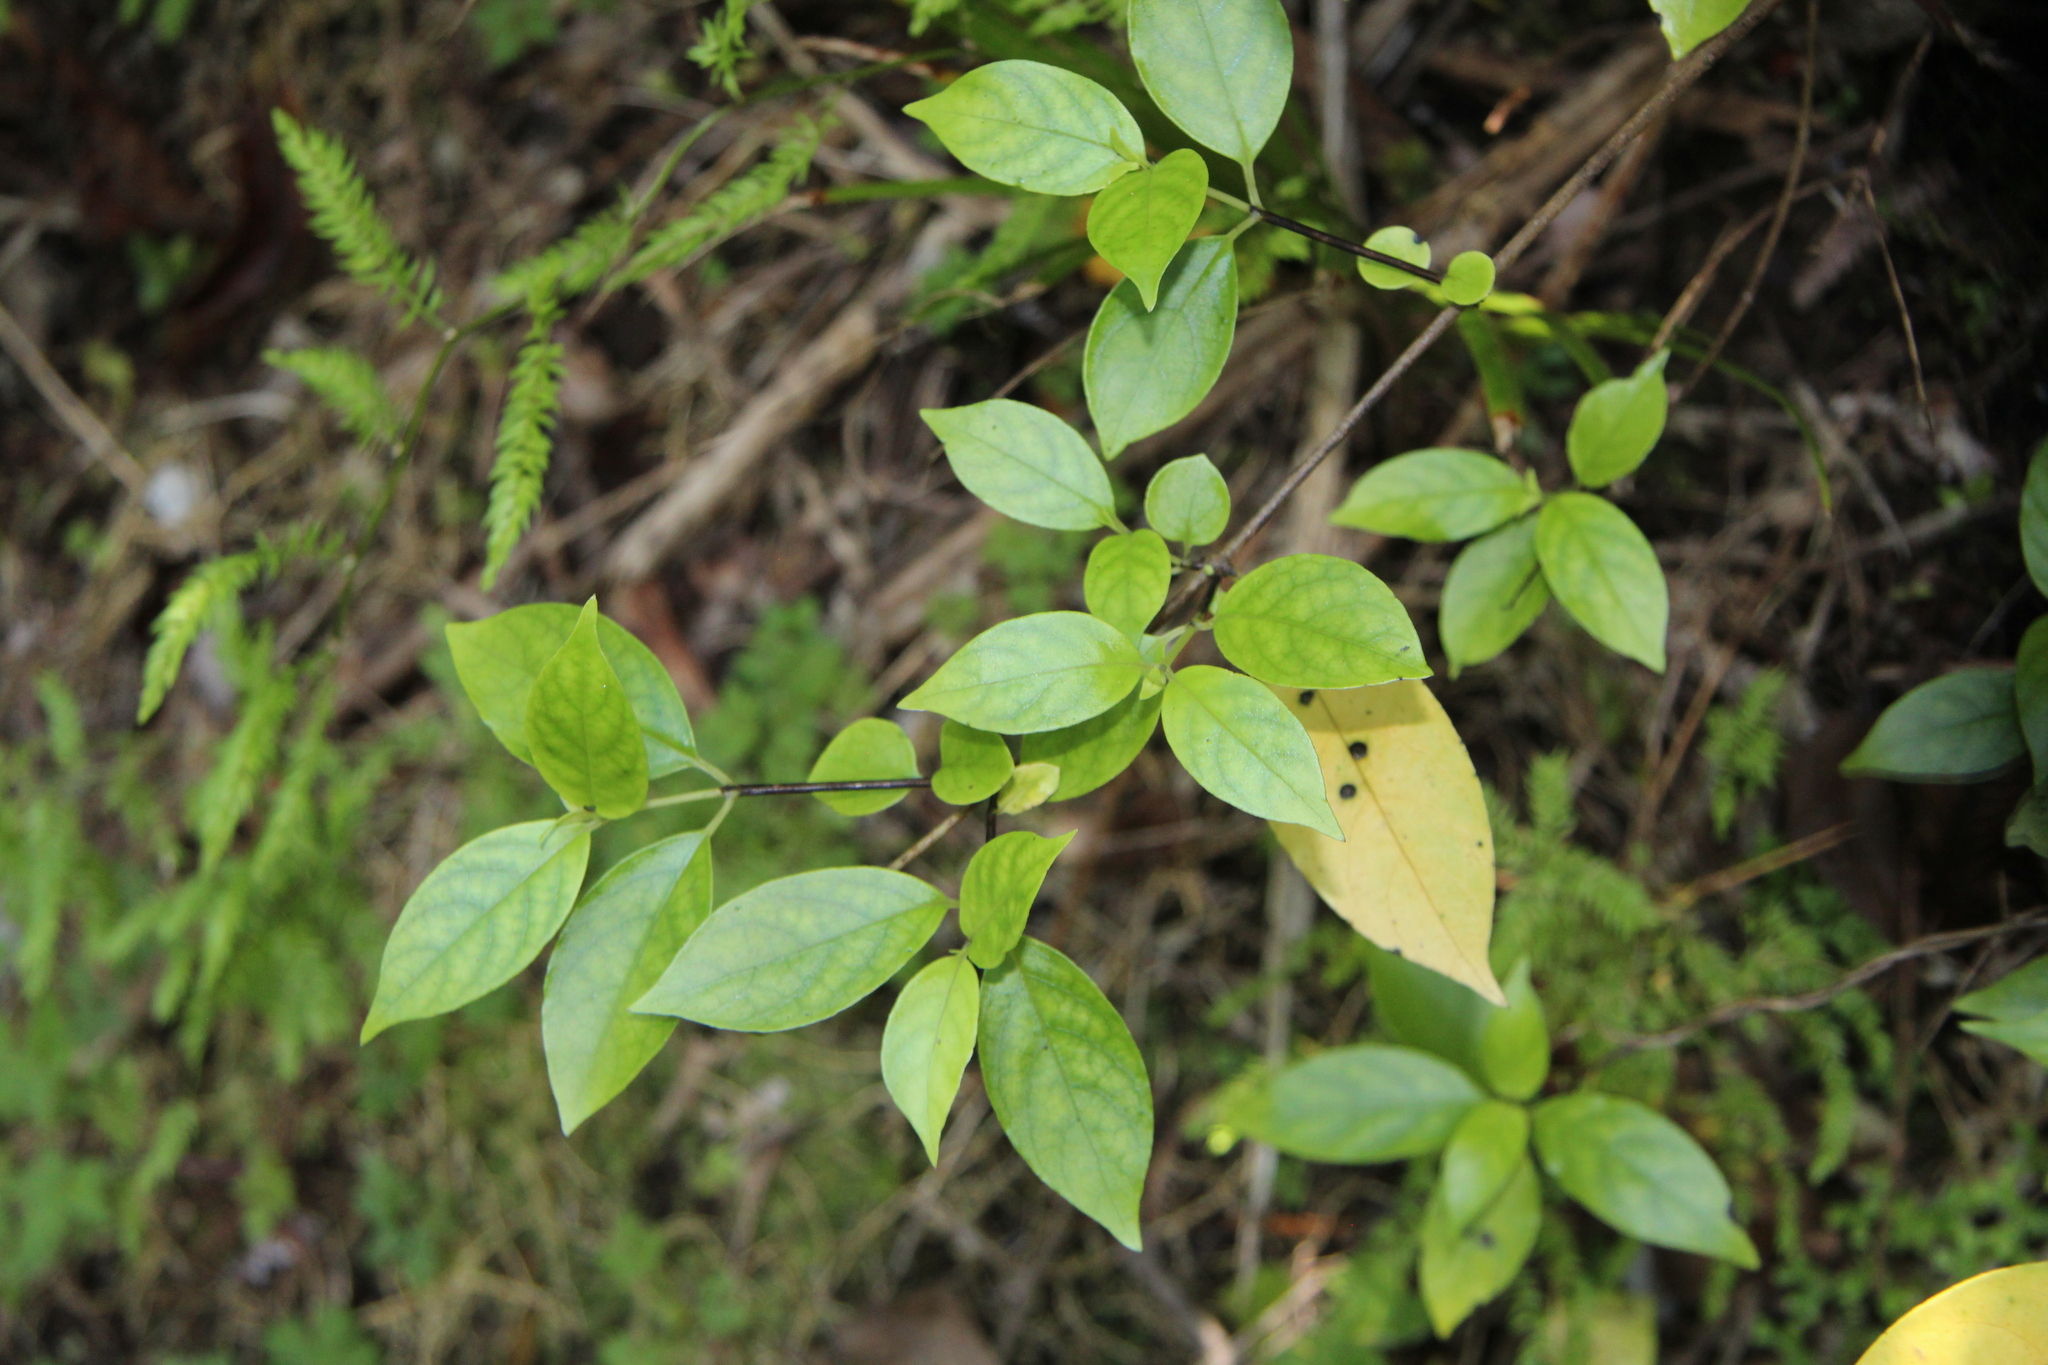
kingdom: Plantae
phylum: Tracheophyta
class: Magnoliopsida
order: Gentianales
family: Loganiaceae
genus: Geniostoma
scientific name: Geniostoma ligustrifolium
